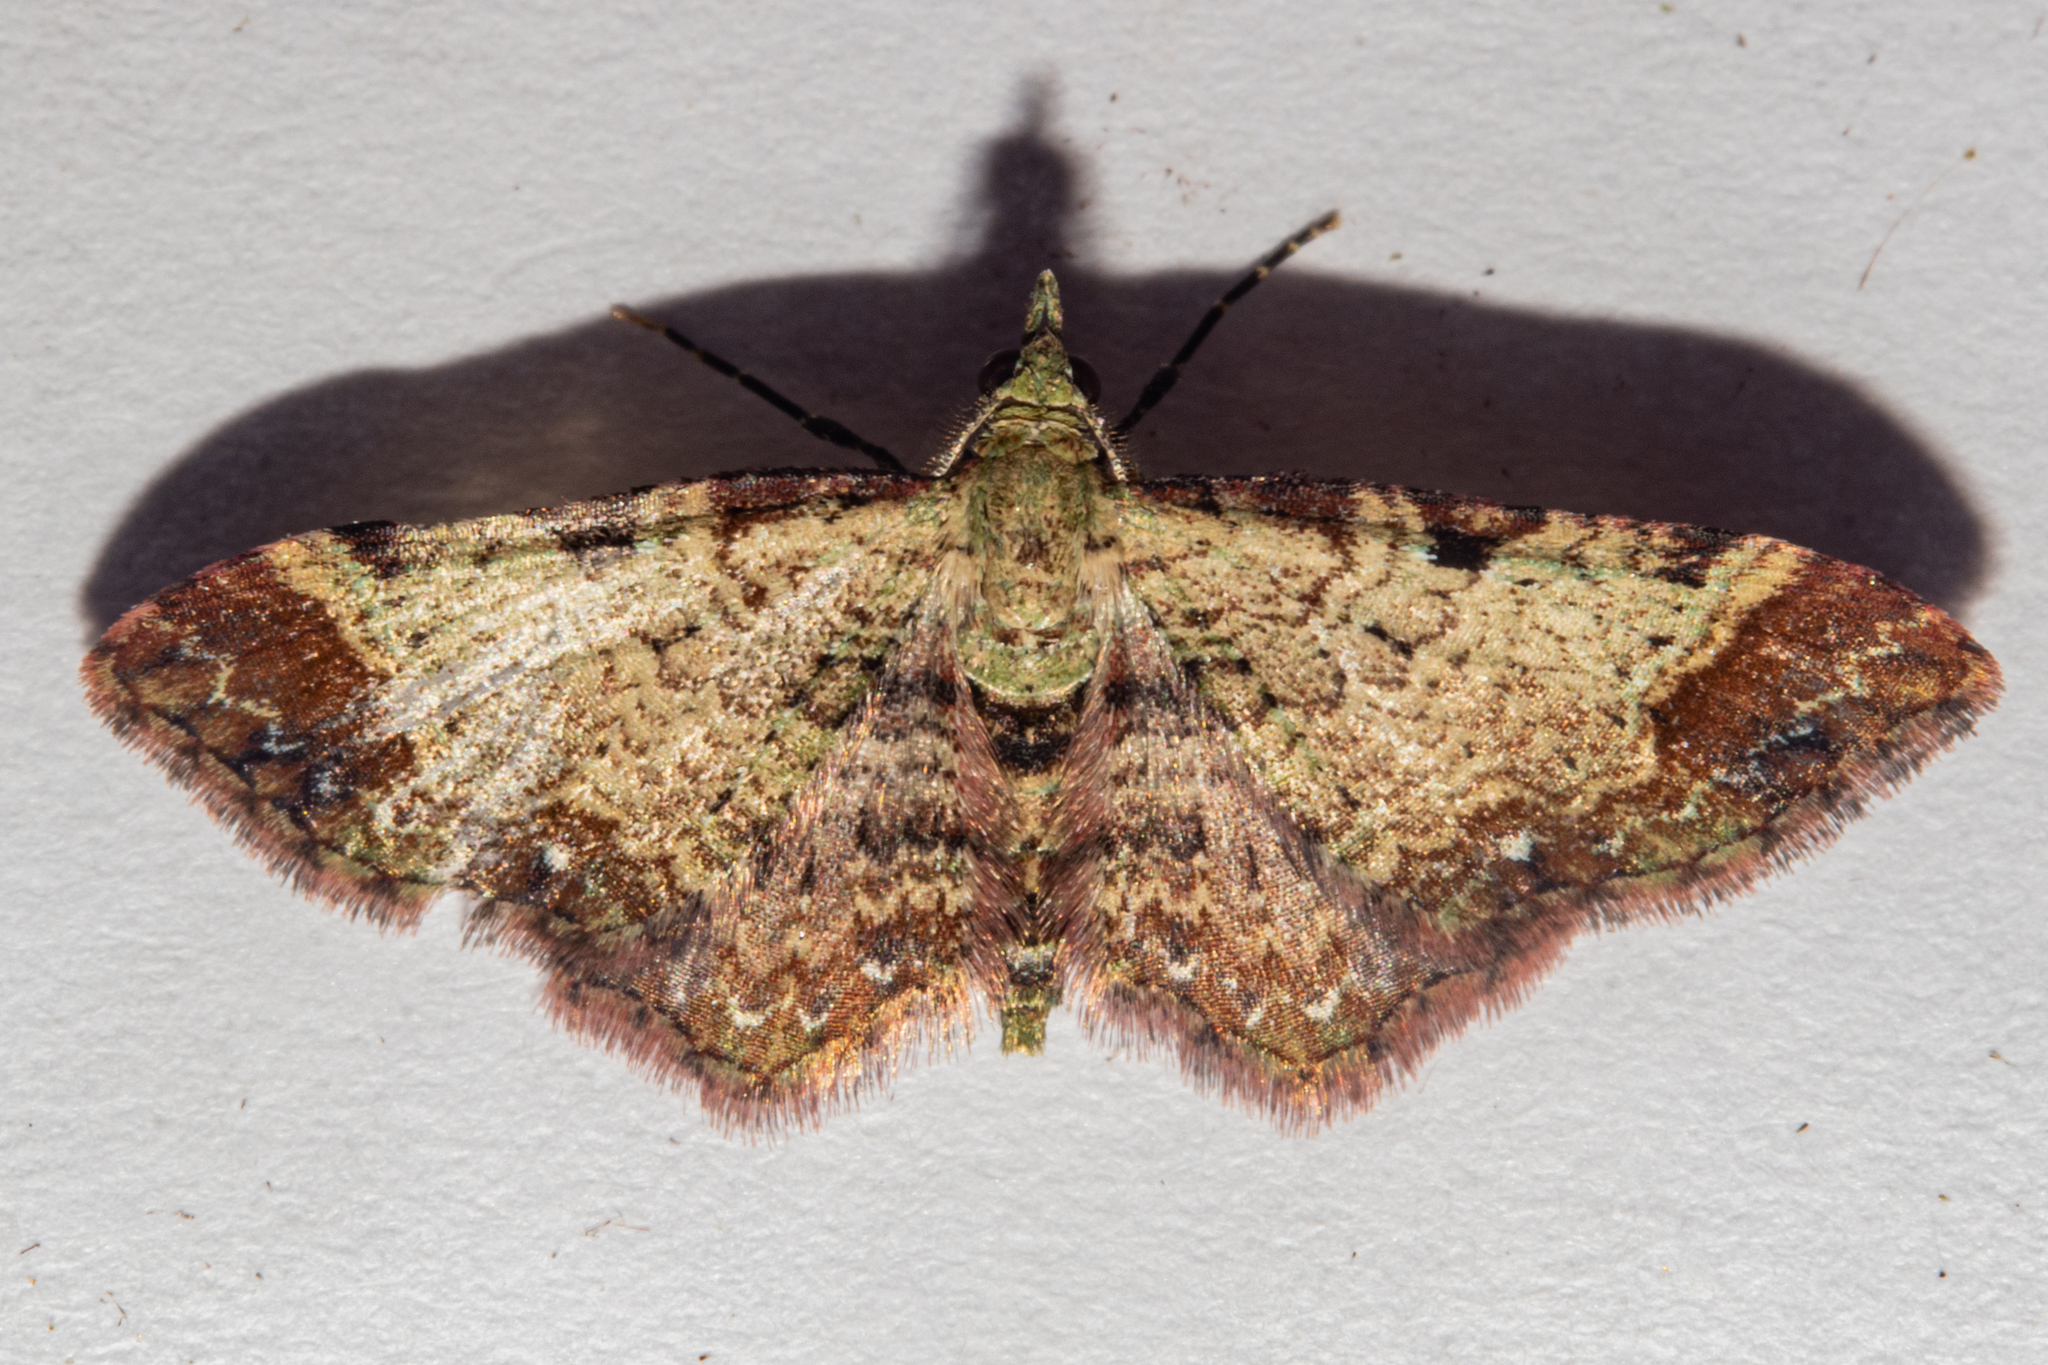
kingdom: Animalia
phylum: Arthropoda
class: Insecta
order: Lepidoptera
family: Geometridae
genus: Pasiphila
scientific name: Pasiphila magnimaculata
